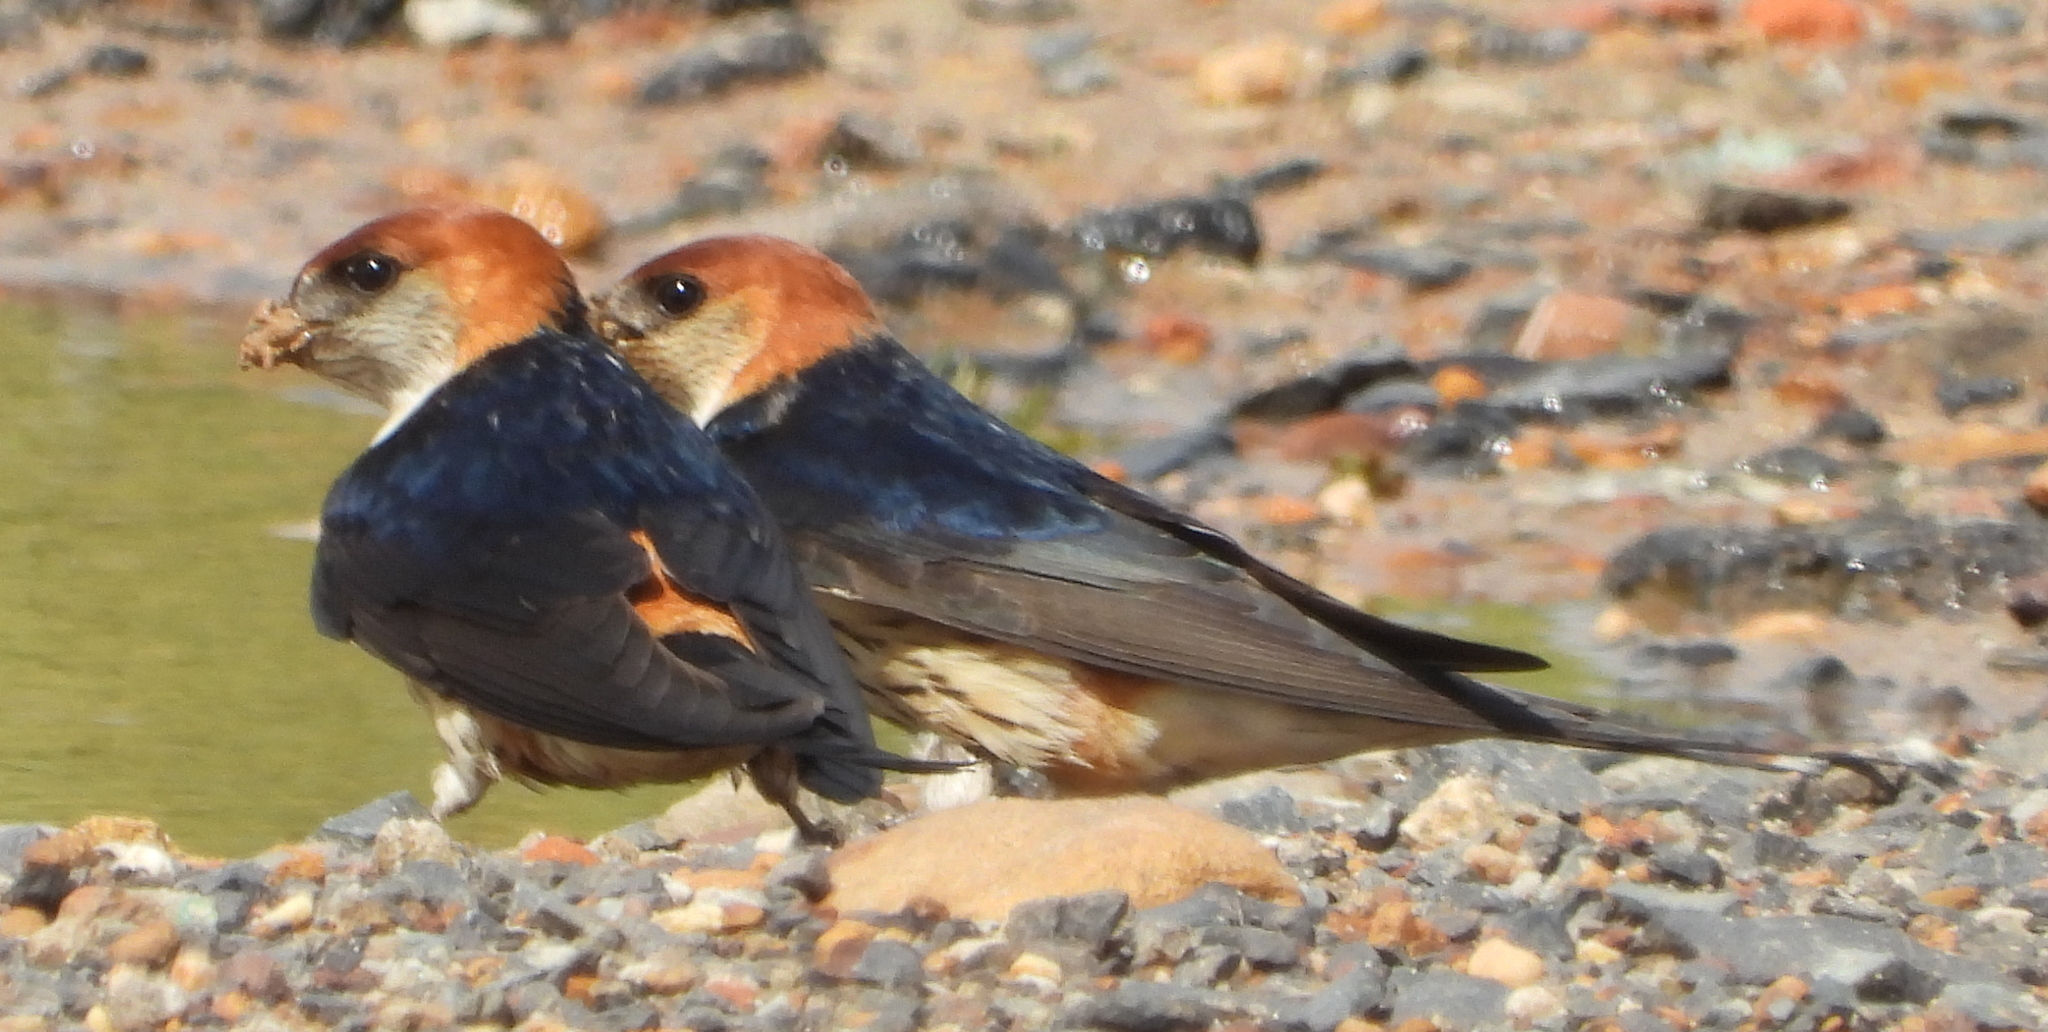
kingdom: Animalia
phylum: Chordata
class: Aves
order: Passeriformes
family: Hirundinidae
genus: Cecropis
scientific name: Cecropis cucullata
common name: Greater striped-swallow
